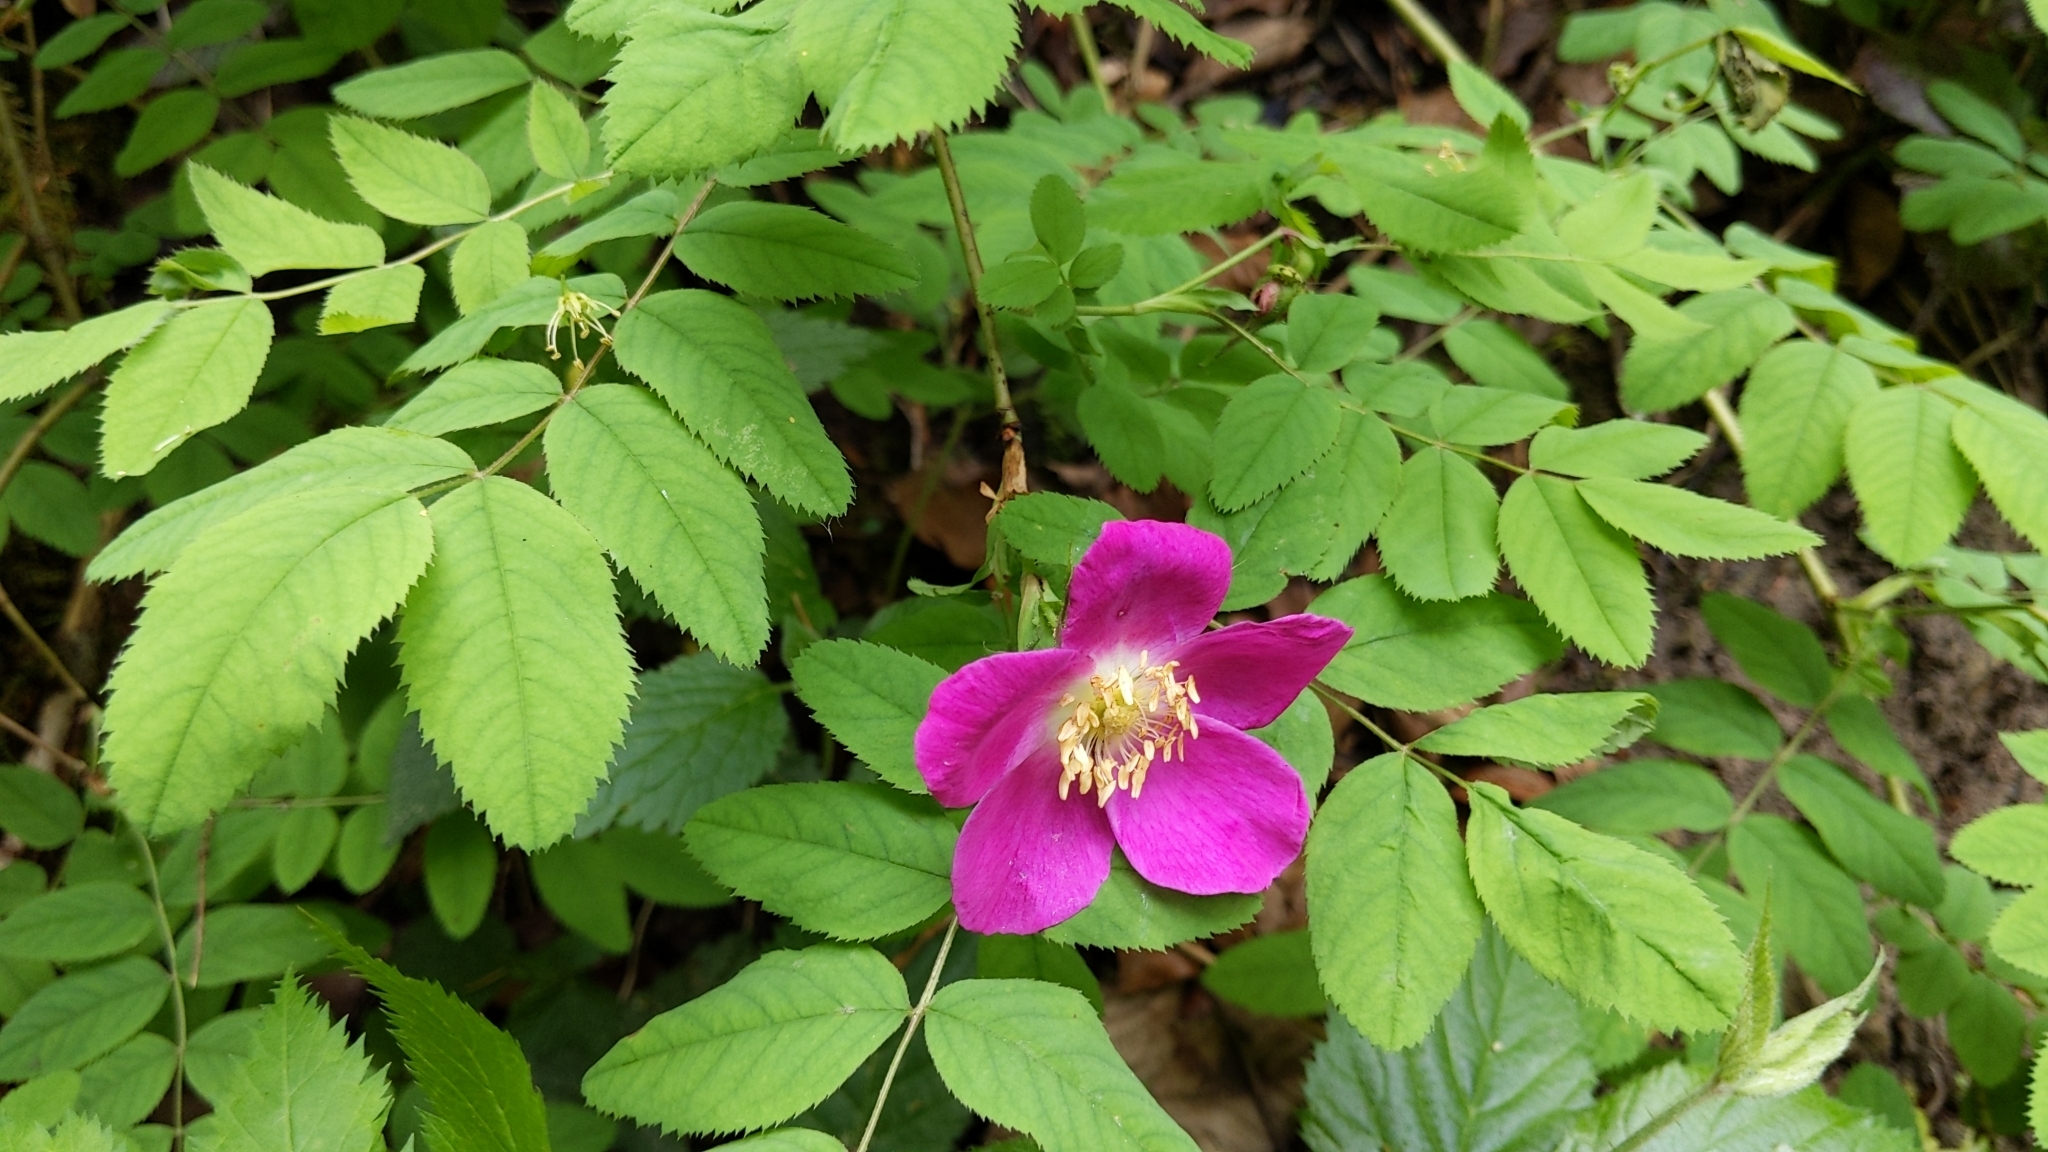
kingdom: Plantae
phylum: Tracheophyta
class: Magnoliopsida
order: Rosales
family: Rosaceae
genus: Rosa
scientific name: Rosa pendulina
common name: Alpine rose
